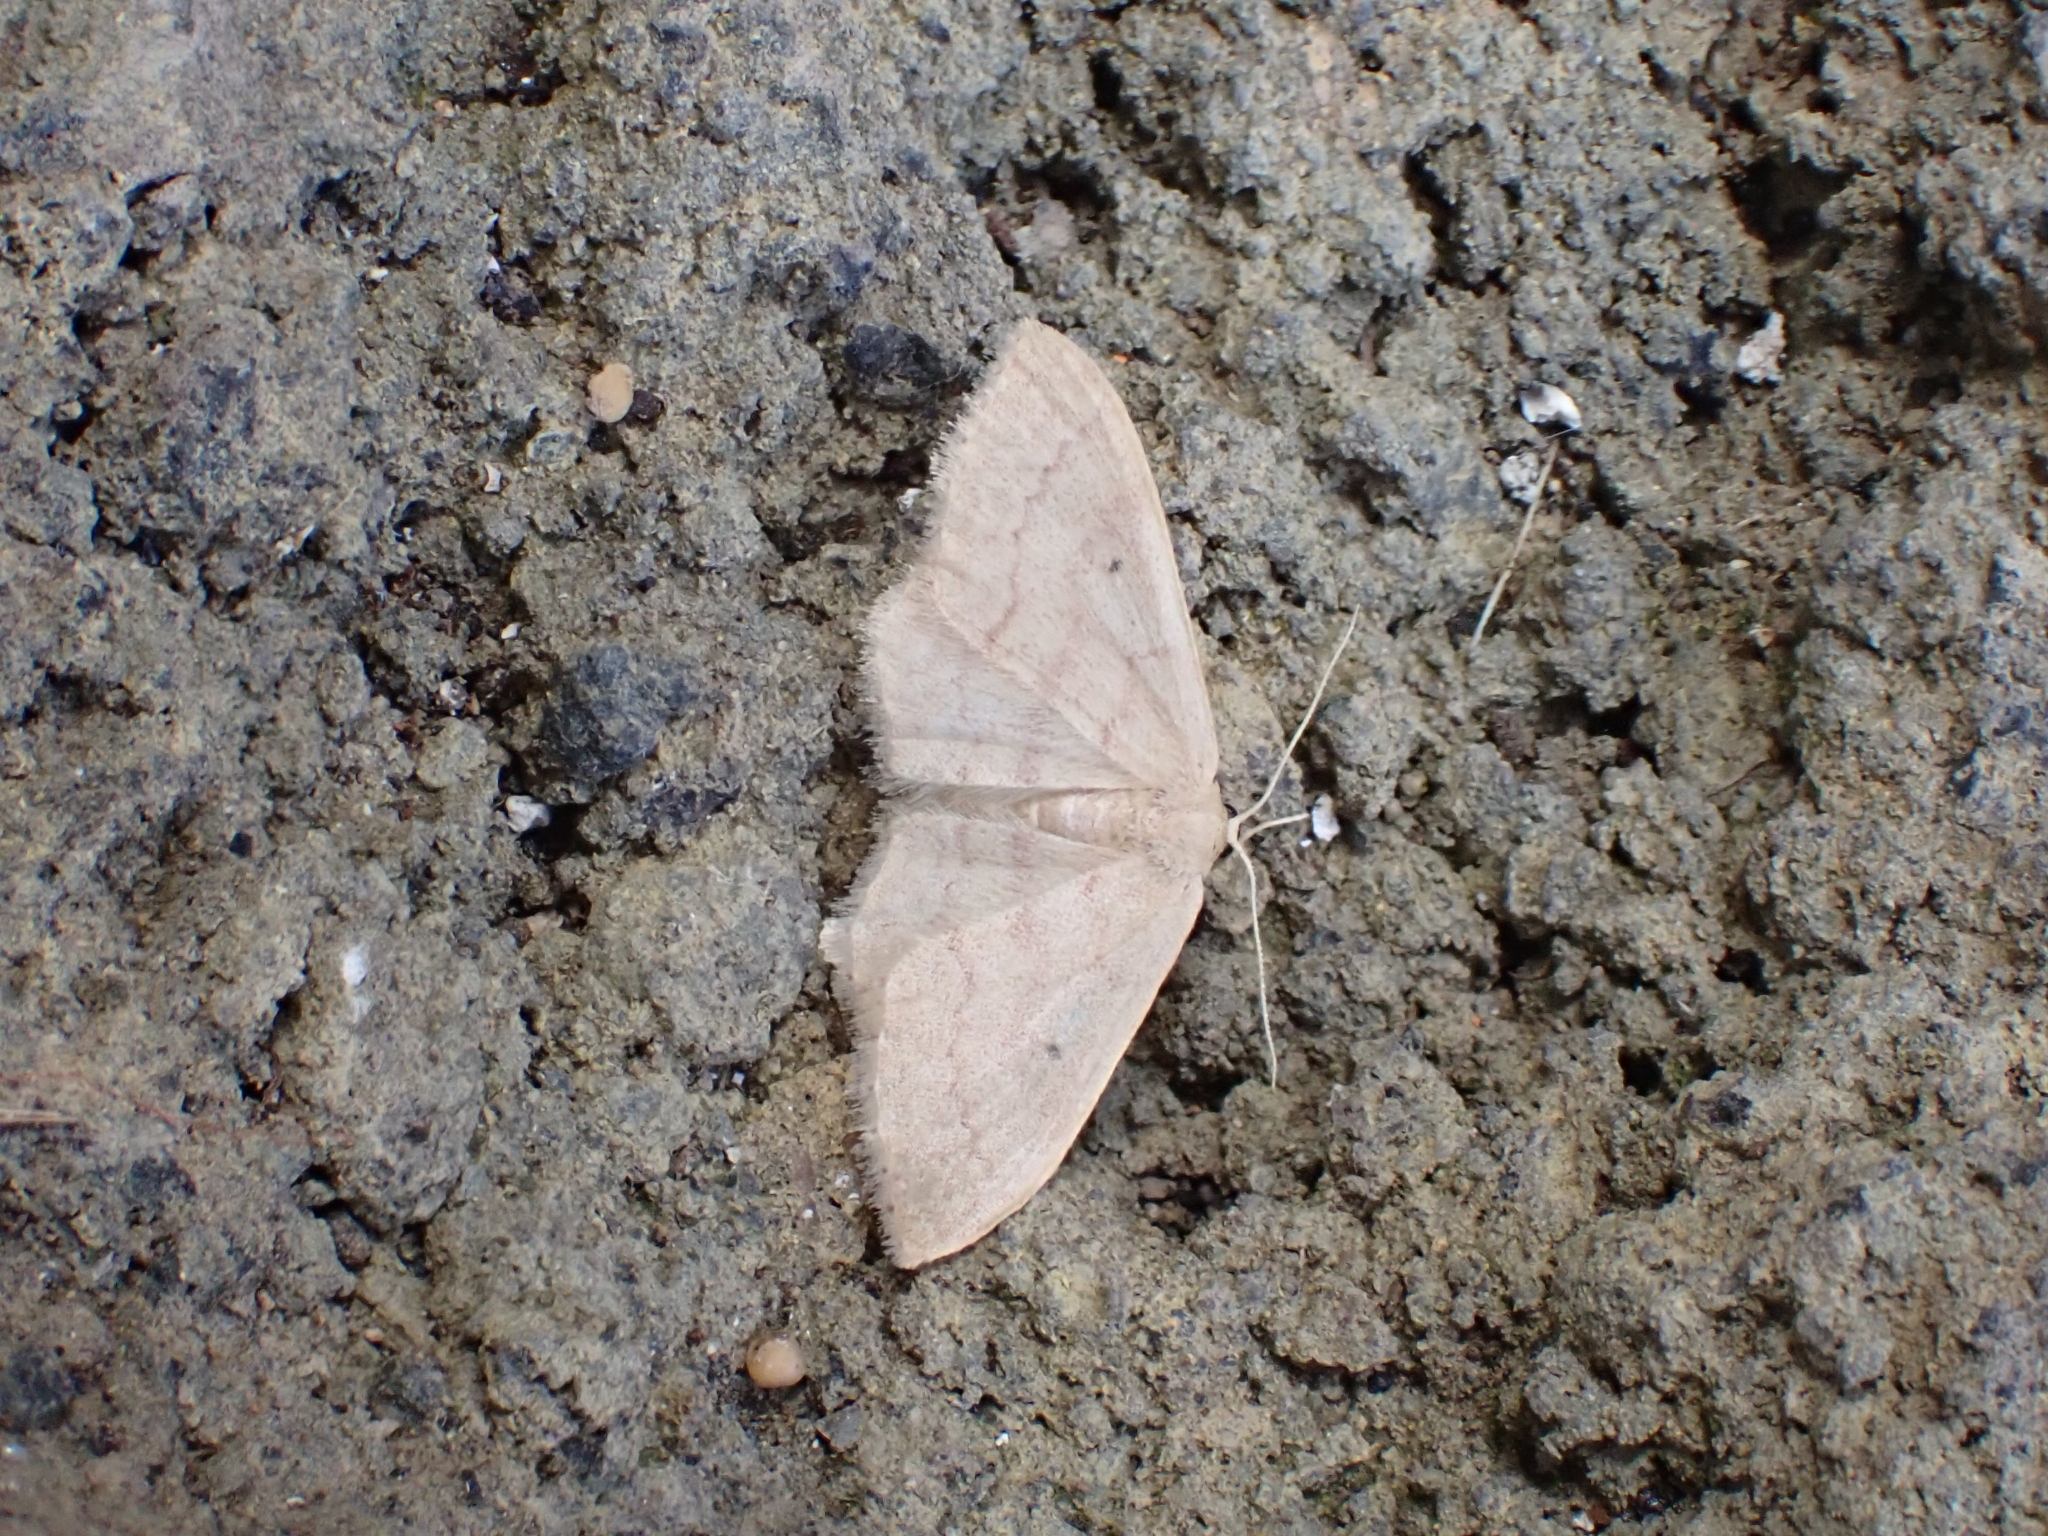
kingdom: Animalia
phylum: Arthropoda
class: Insecta
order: Lepidoptera
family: Geometridae
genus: Idaea
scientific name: Idaea neglecta
